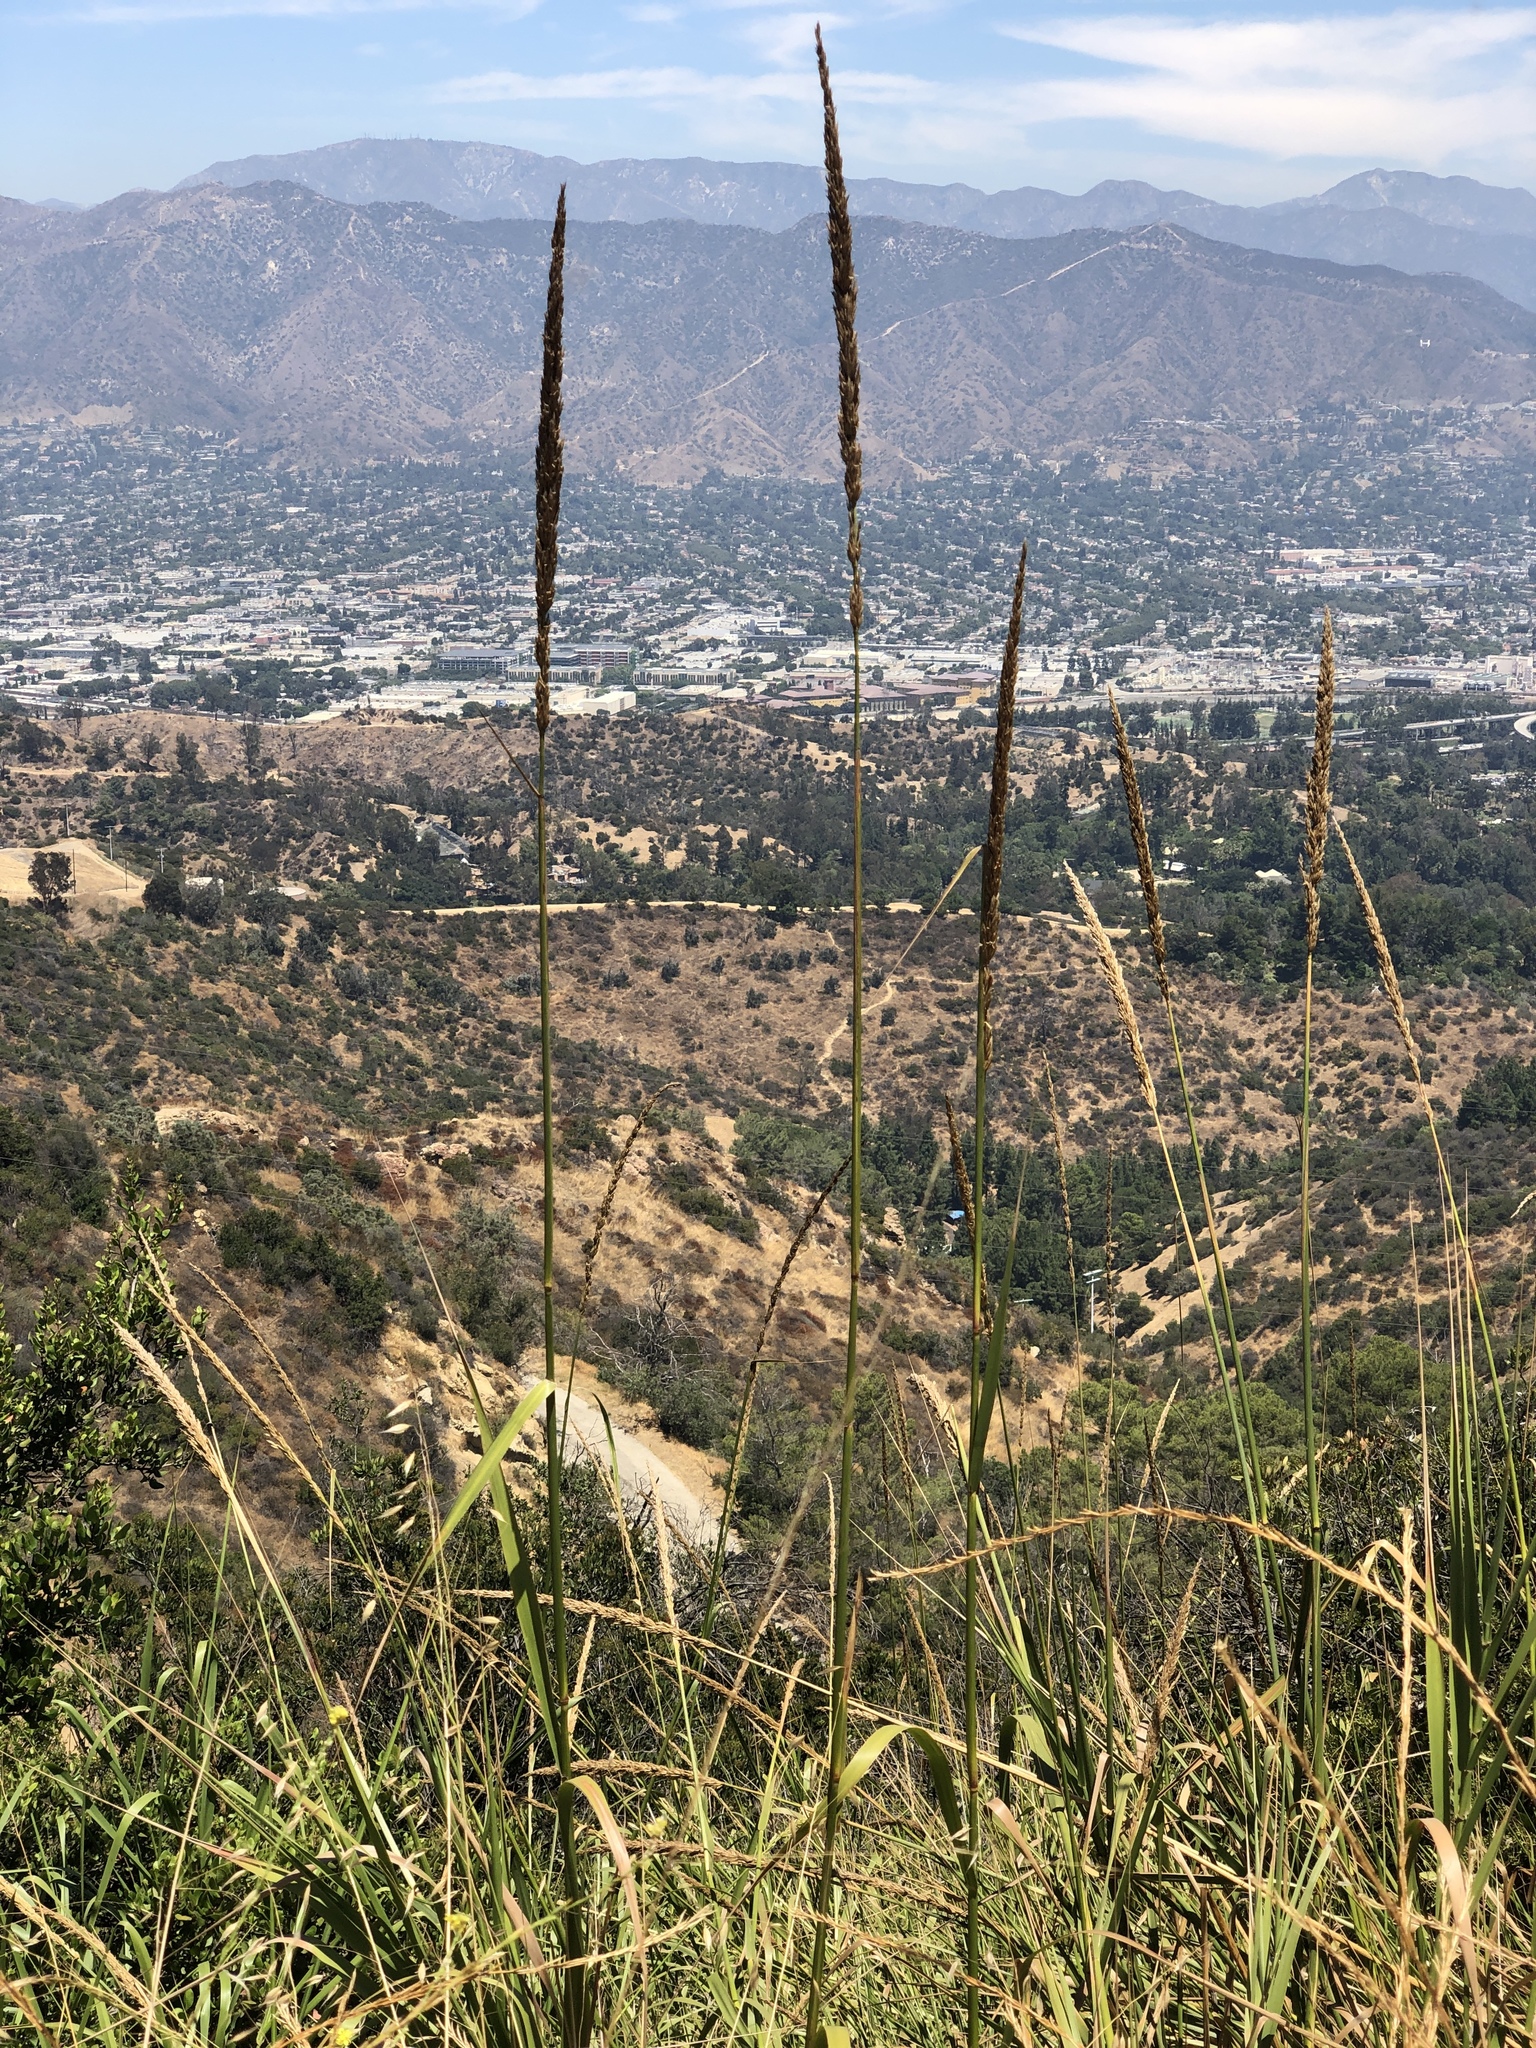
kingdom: Plantae
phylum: Tracheophyta
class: Liliopsida
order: Poales
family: Poaceae
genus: Leymus
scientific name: Leymus condensatus
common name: Giant wild rye
